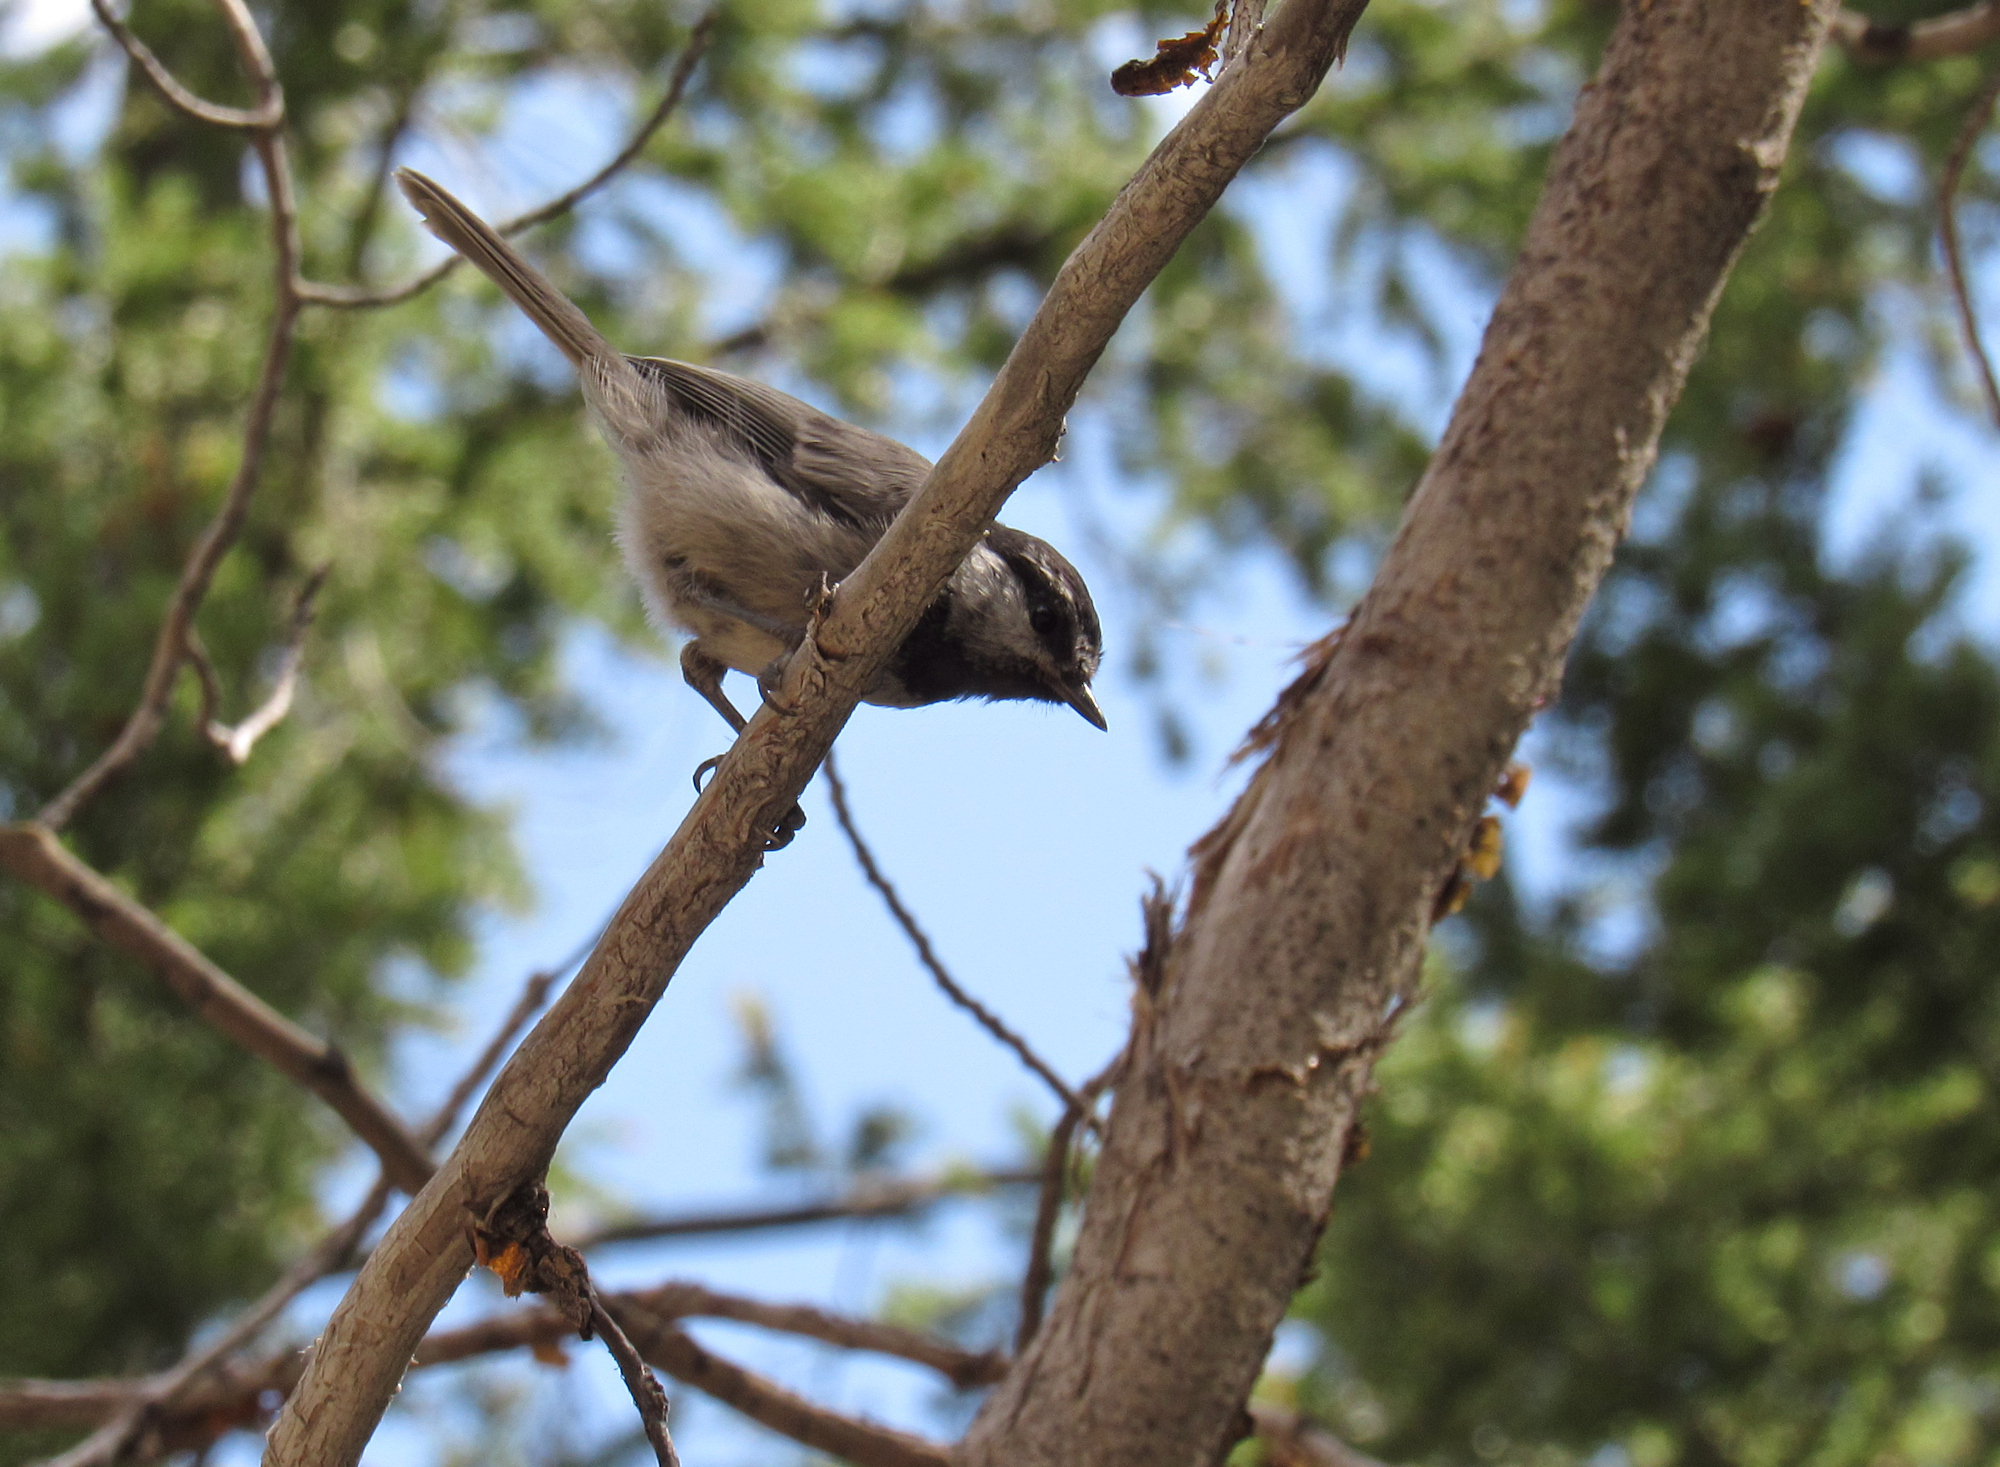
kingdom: Animalia
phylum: Chordata
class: Aves
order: Passeriformes
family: Paridae
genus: Poecile
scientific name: Poecile gambeli
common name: Mountain chickadee
